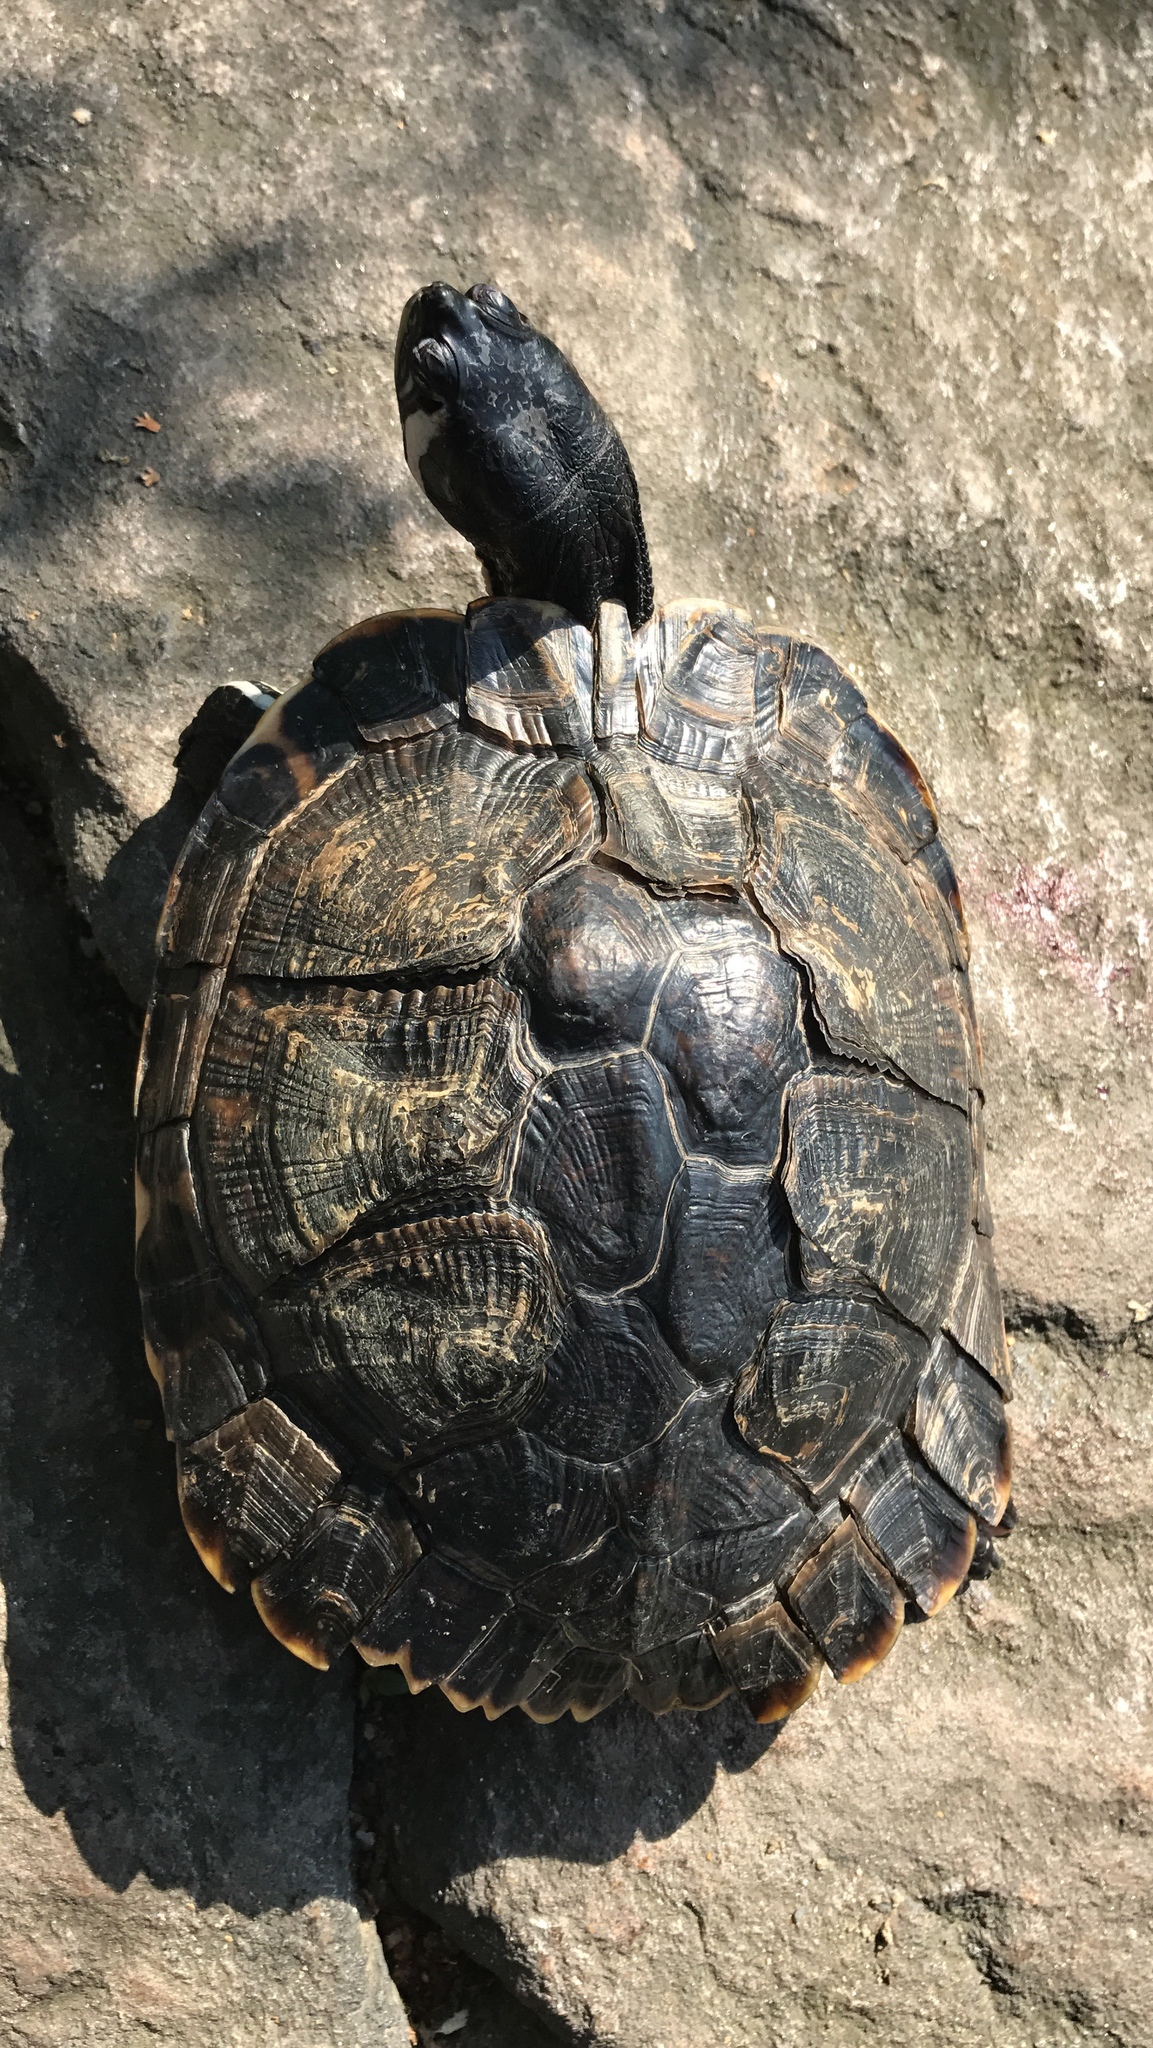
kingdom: Animalia
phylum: Chordata
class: Testudines
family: Emydidae
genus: Trachemys
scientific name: Trachemys scripta
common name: Slider
